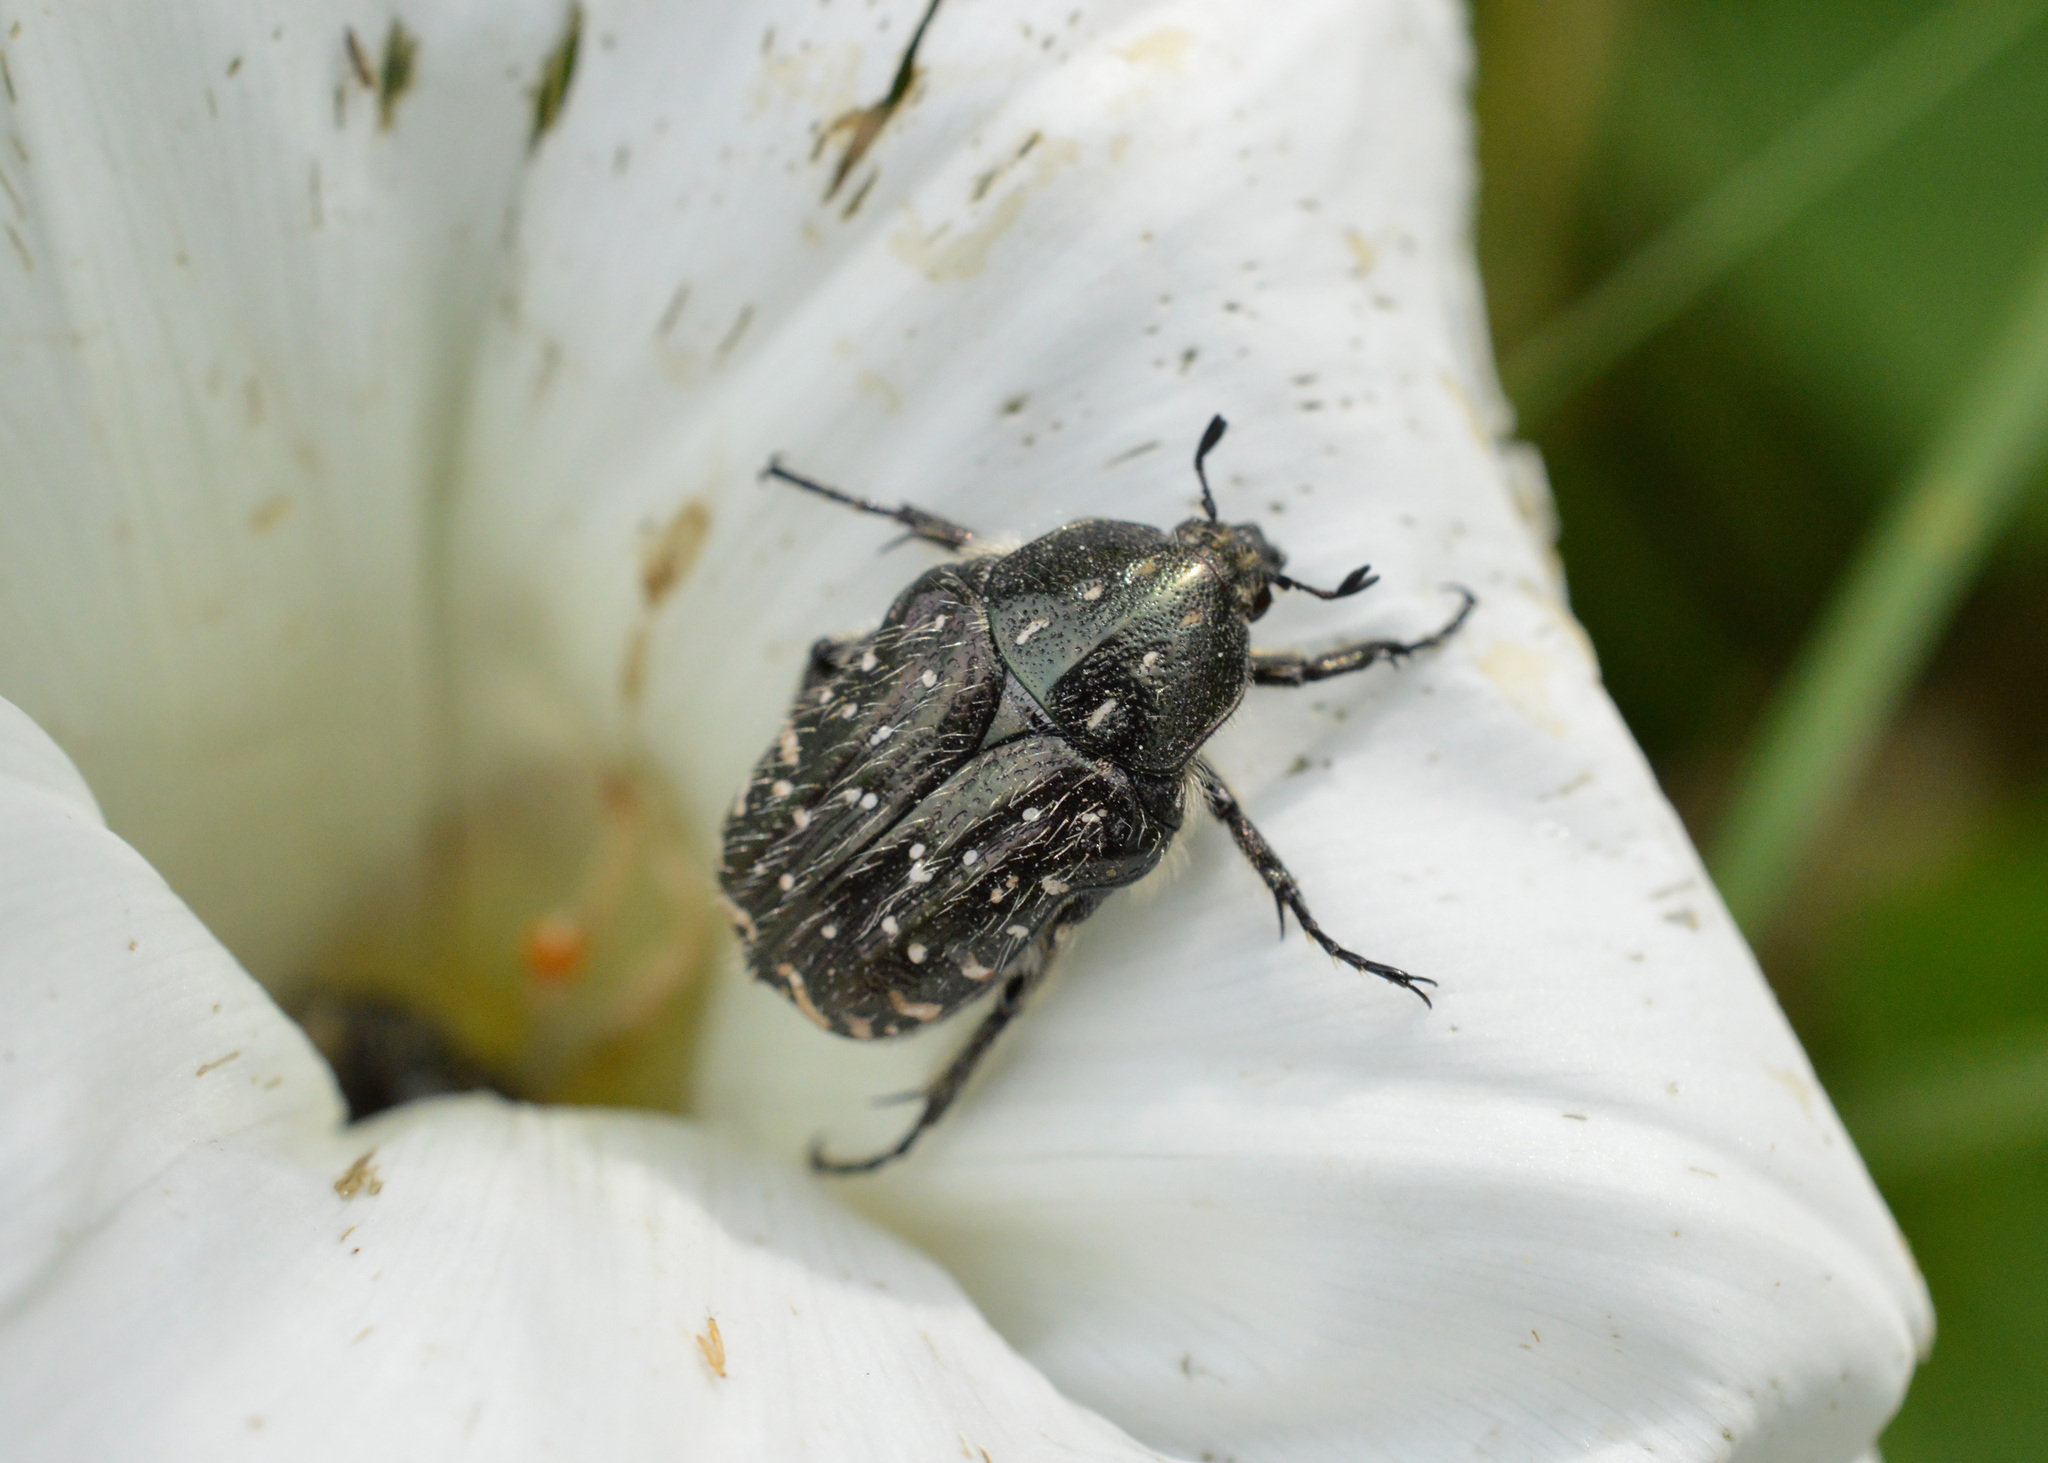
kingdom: Animalia
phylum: Arthropoda
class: Insecta
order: Coleoptera
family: Scarabaeidae
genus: Oxythyrea
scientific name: Oxythyrea funesta
